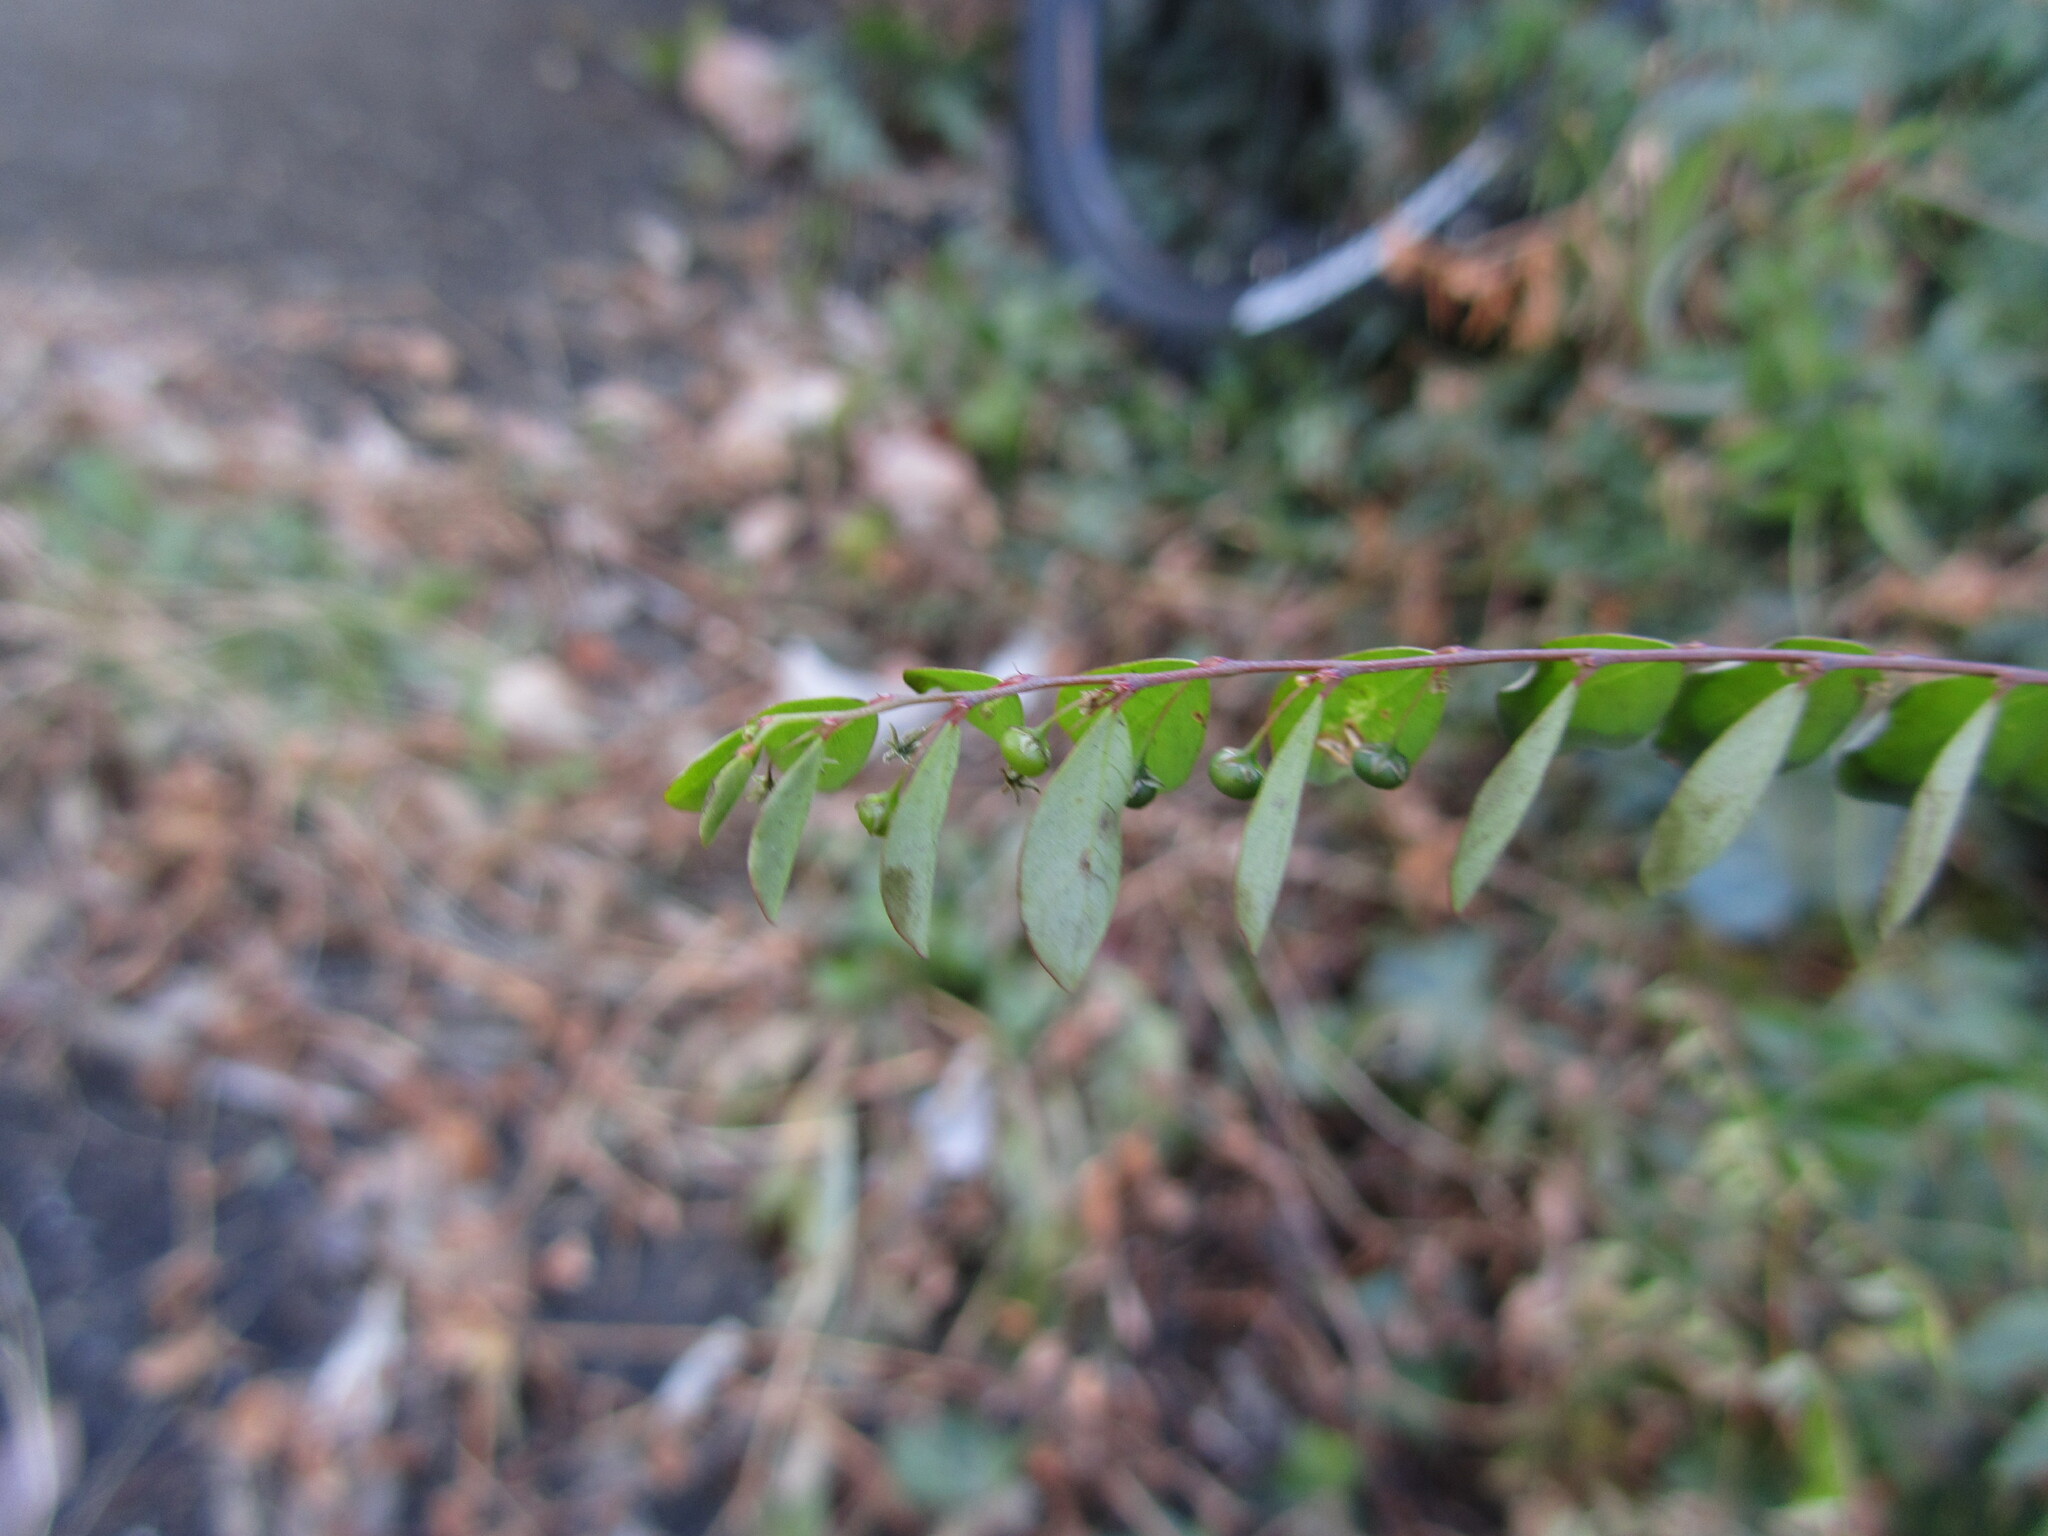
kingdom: Plantae
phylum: Tracheophyta
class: Magnoliopsida
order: Malpighiales
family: Phyllanthaceae
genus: Phyllanthus
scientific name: Phyllanthus tenellus
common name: Mascarene island leaf-flower
